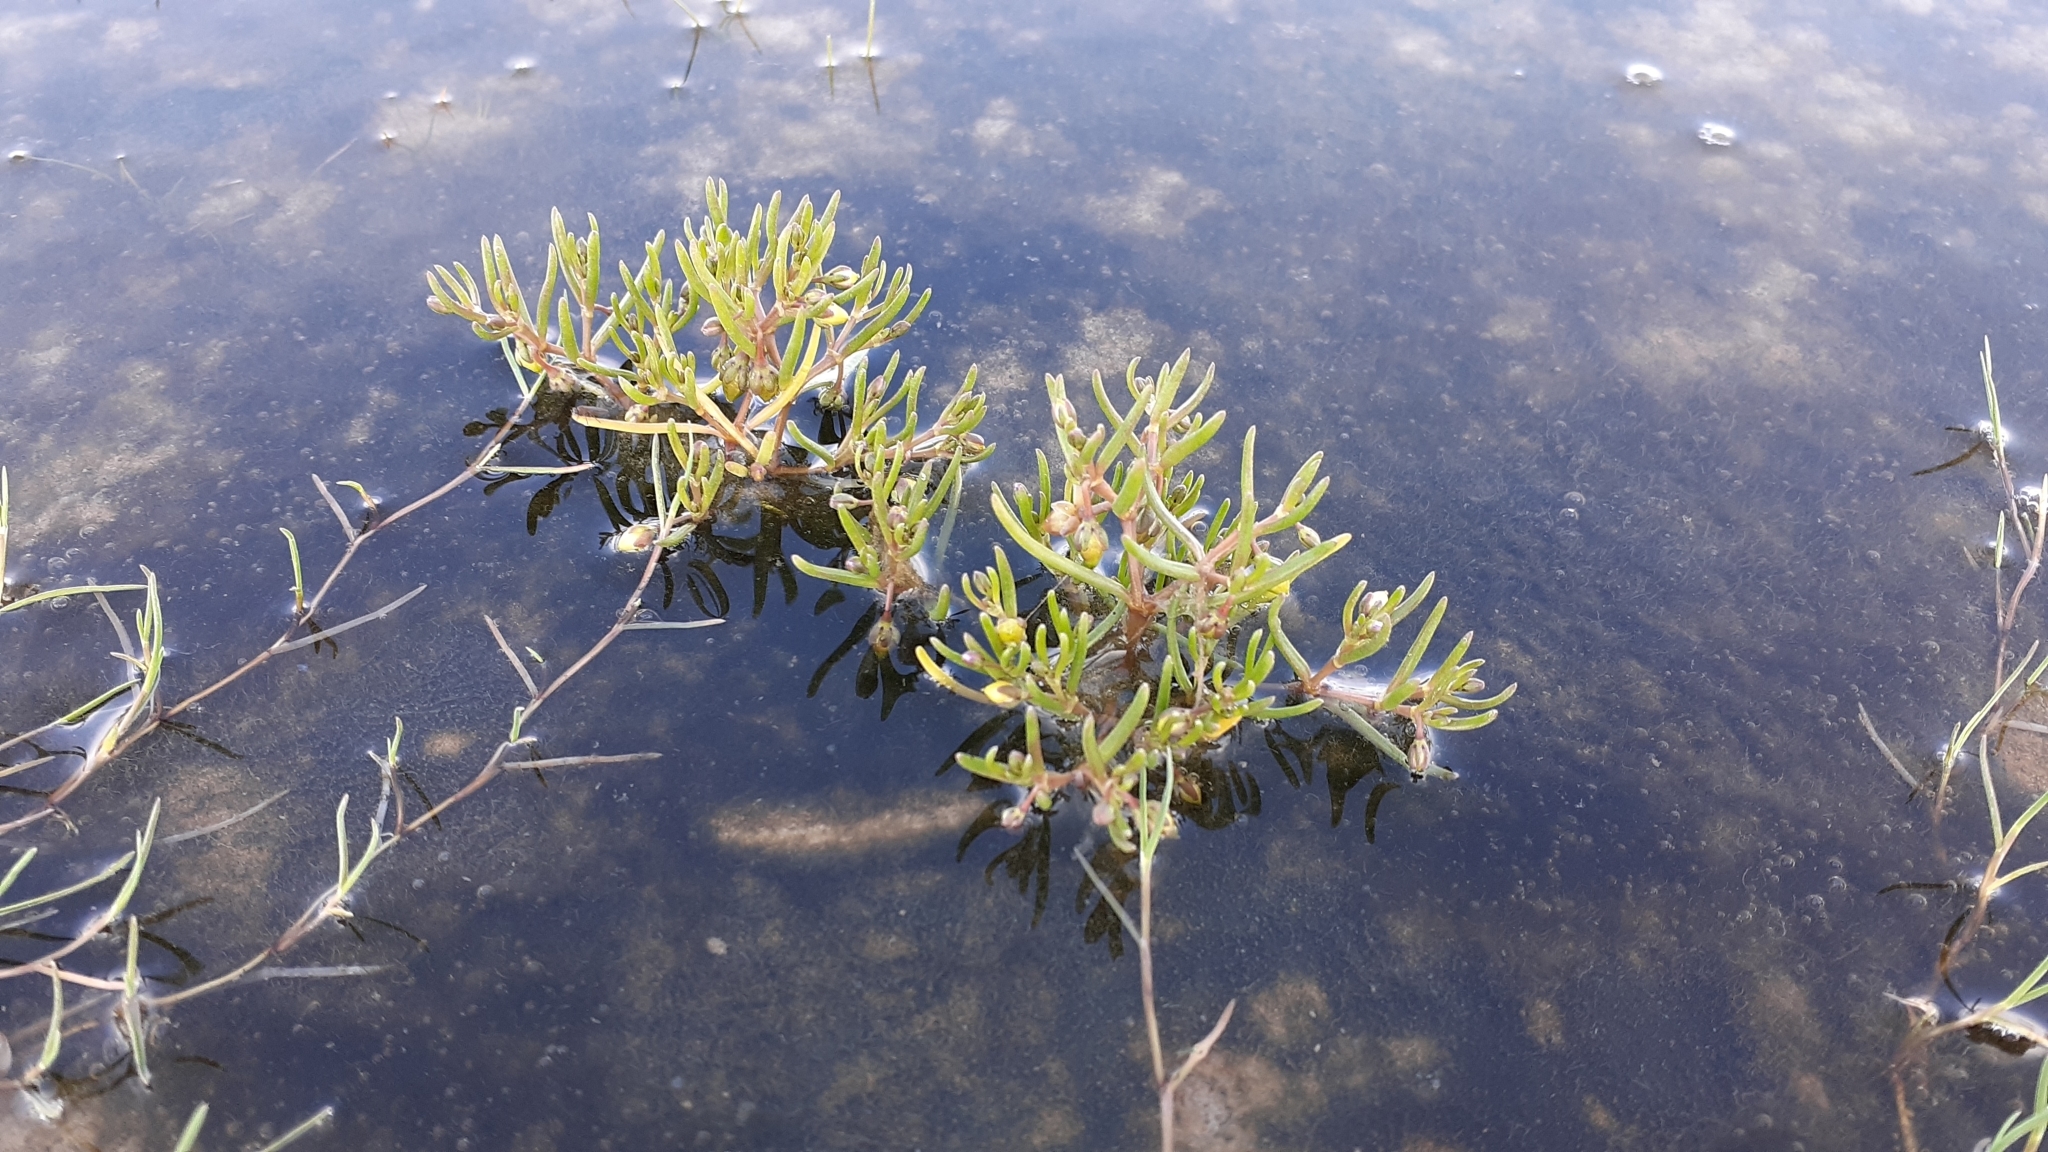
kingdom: Plantae
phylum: Tracheophyta
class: Magnoliopsida
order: Caryophyllales
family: Caryophyllaceae
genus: Spergularia
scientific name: Spergularia canadensis
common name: Canada sand-spurrey
